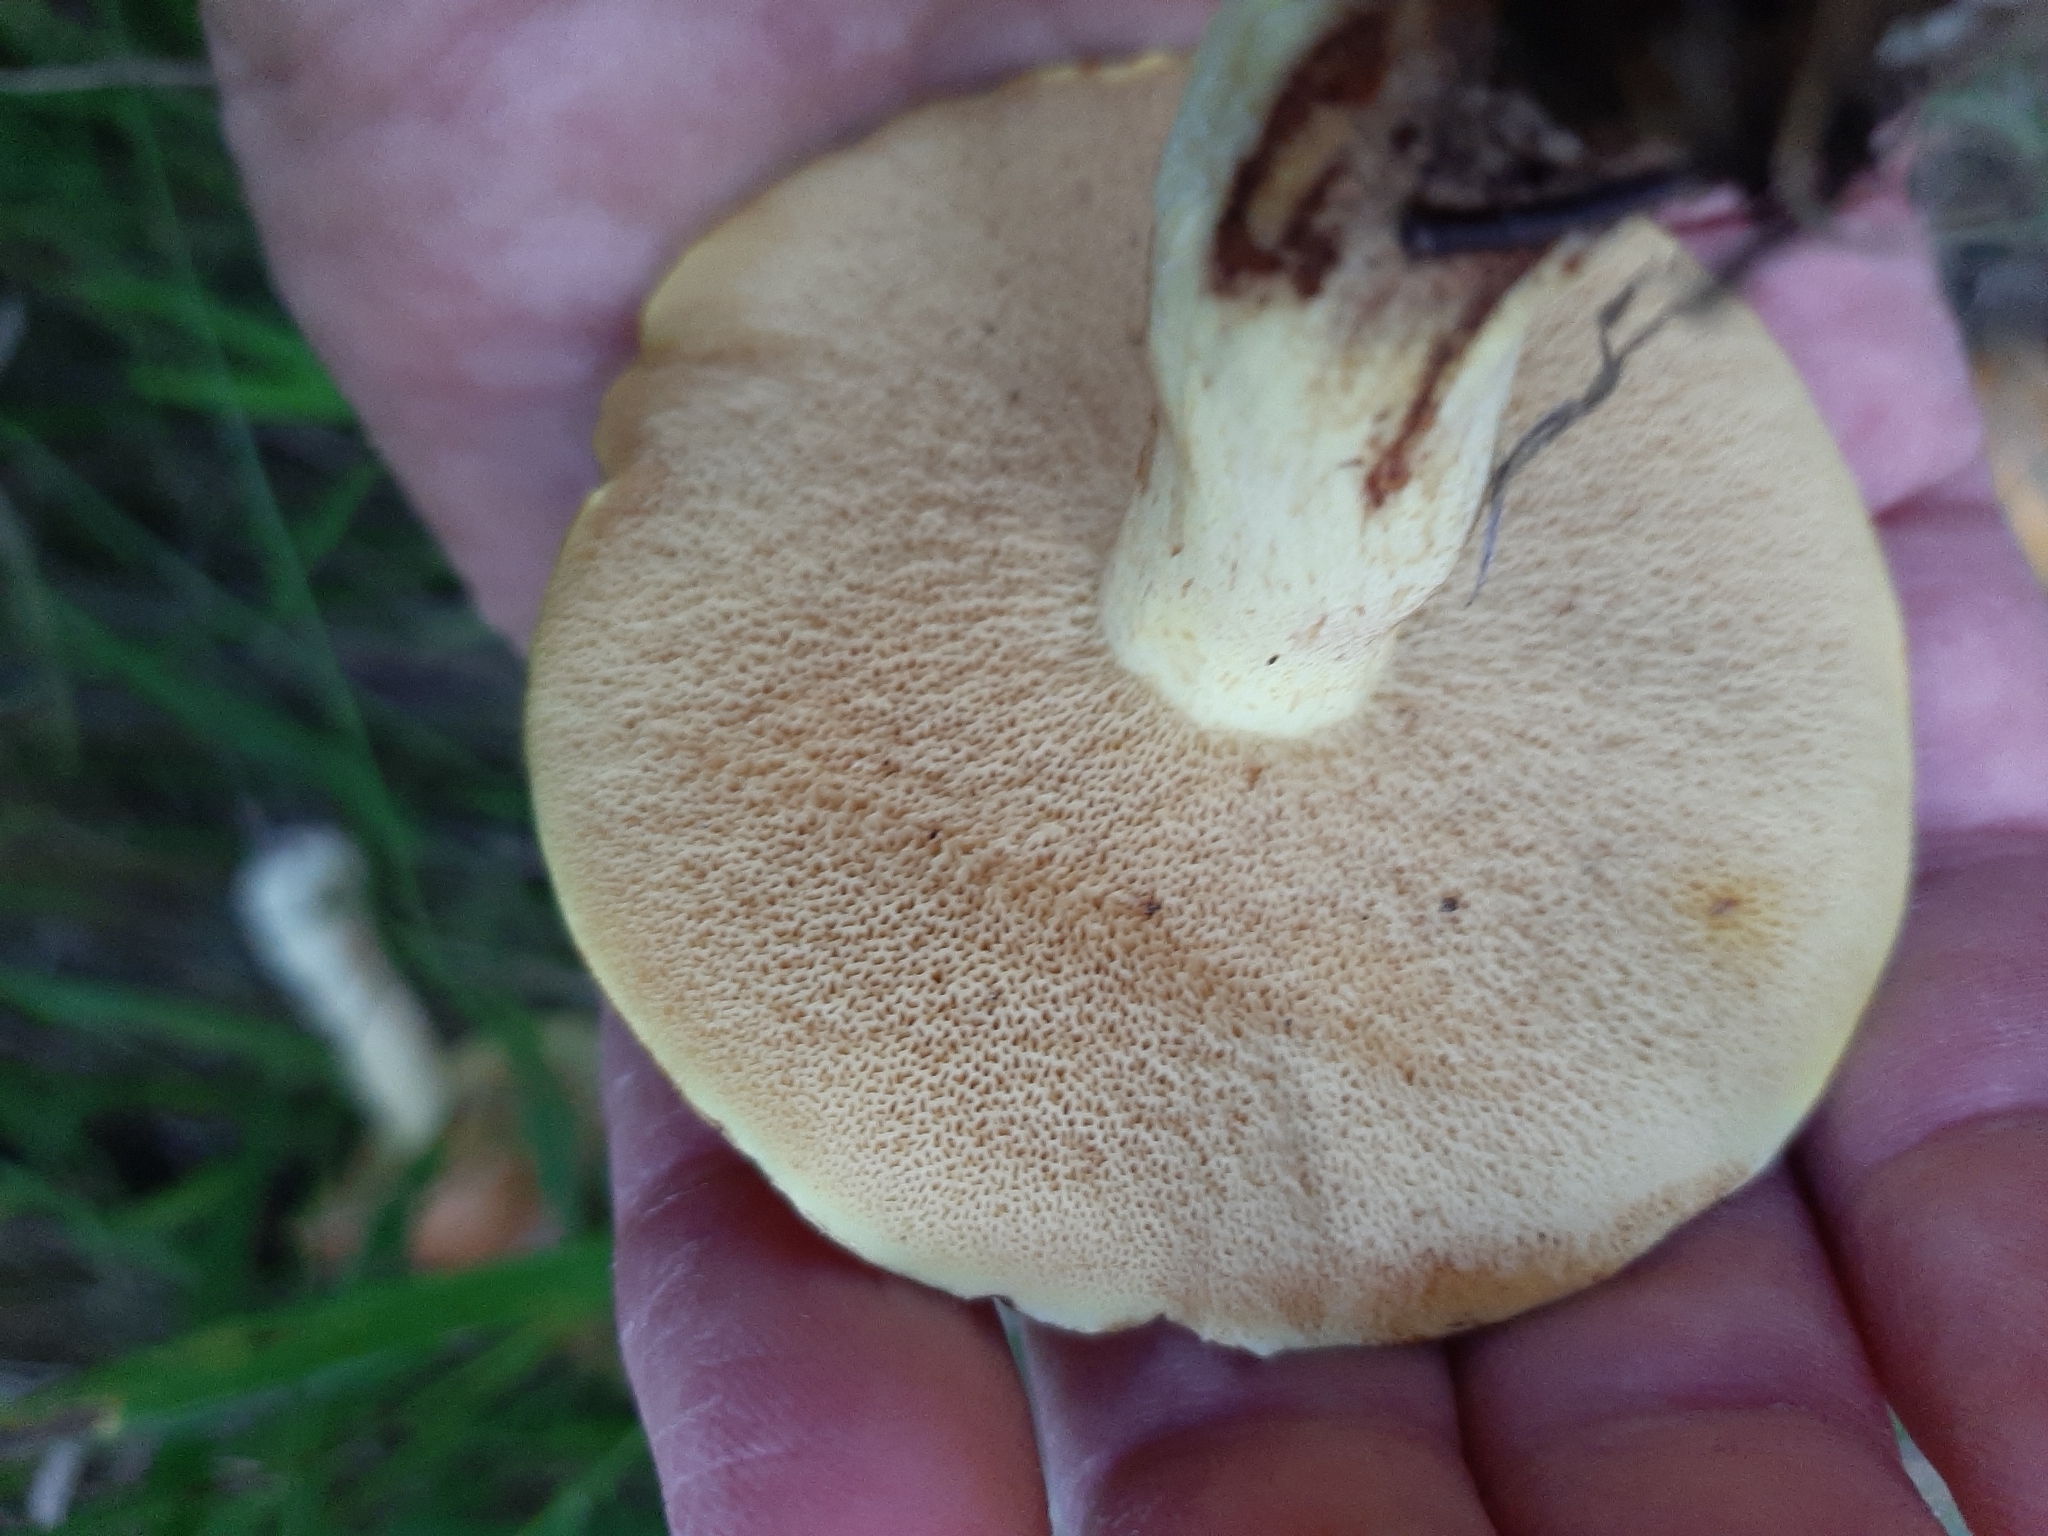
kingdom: Fungi
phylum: Basidiomycota
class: Agaricomycetes
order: Boletales
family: Suillaceae
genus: Suillus
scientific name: Suillus granulatus
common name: Weeping bolete
